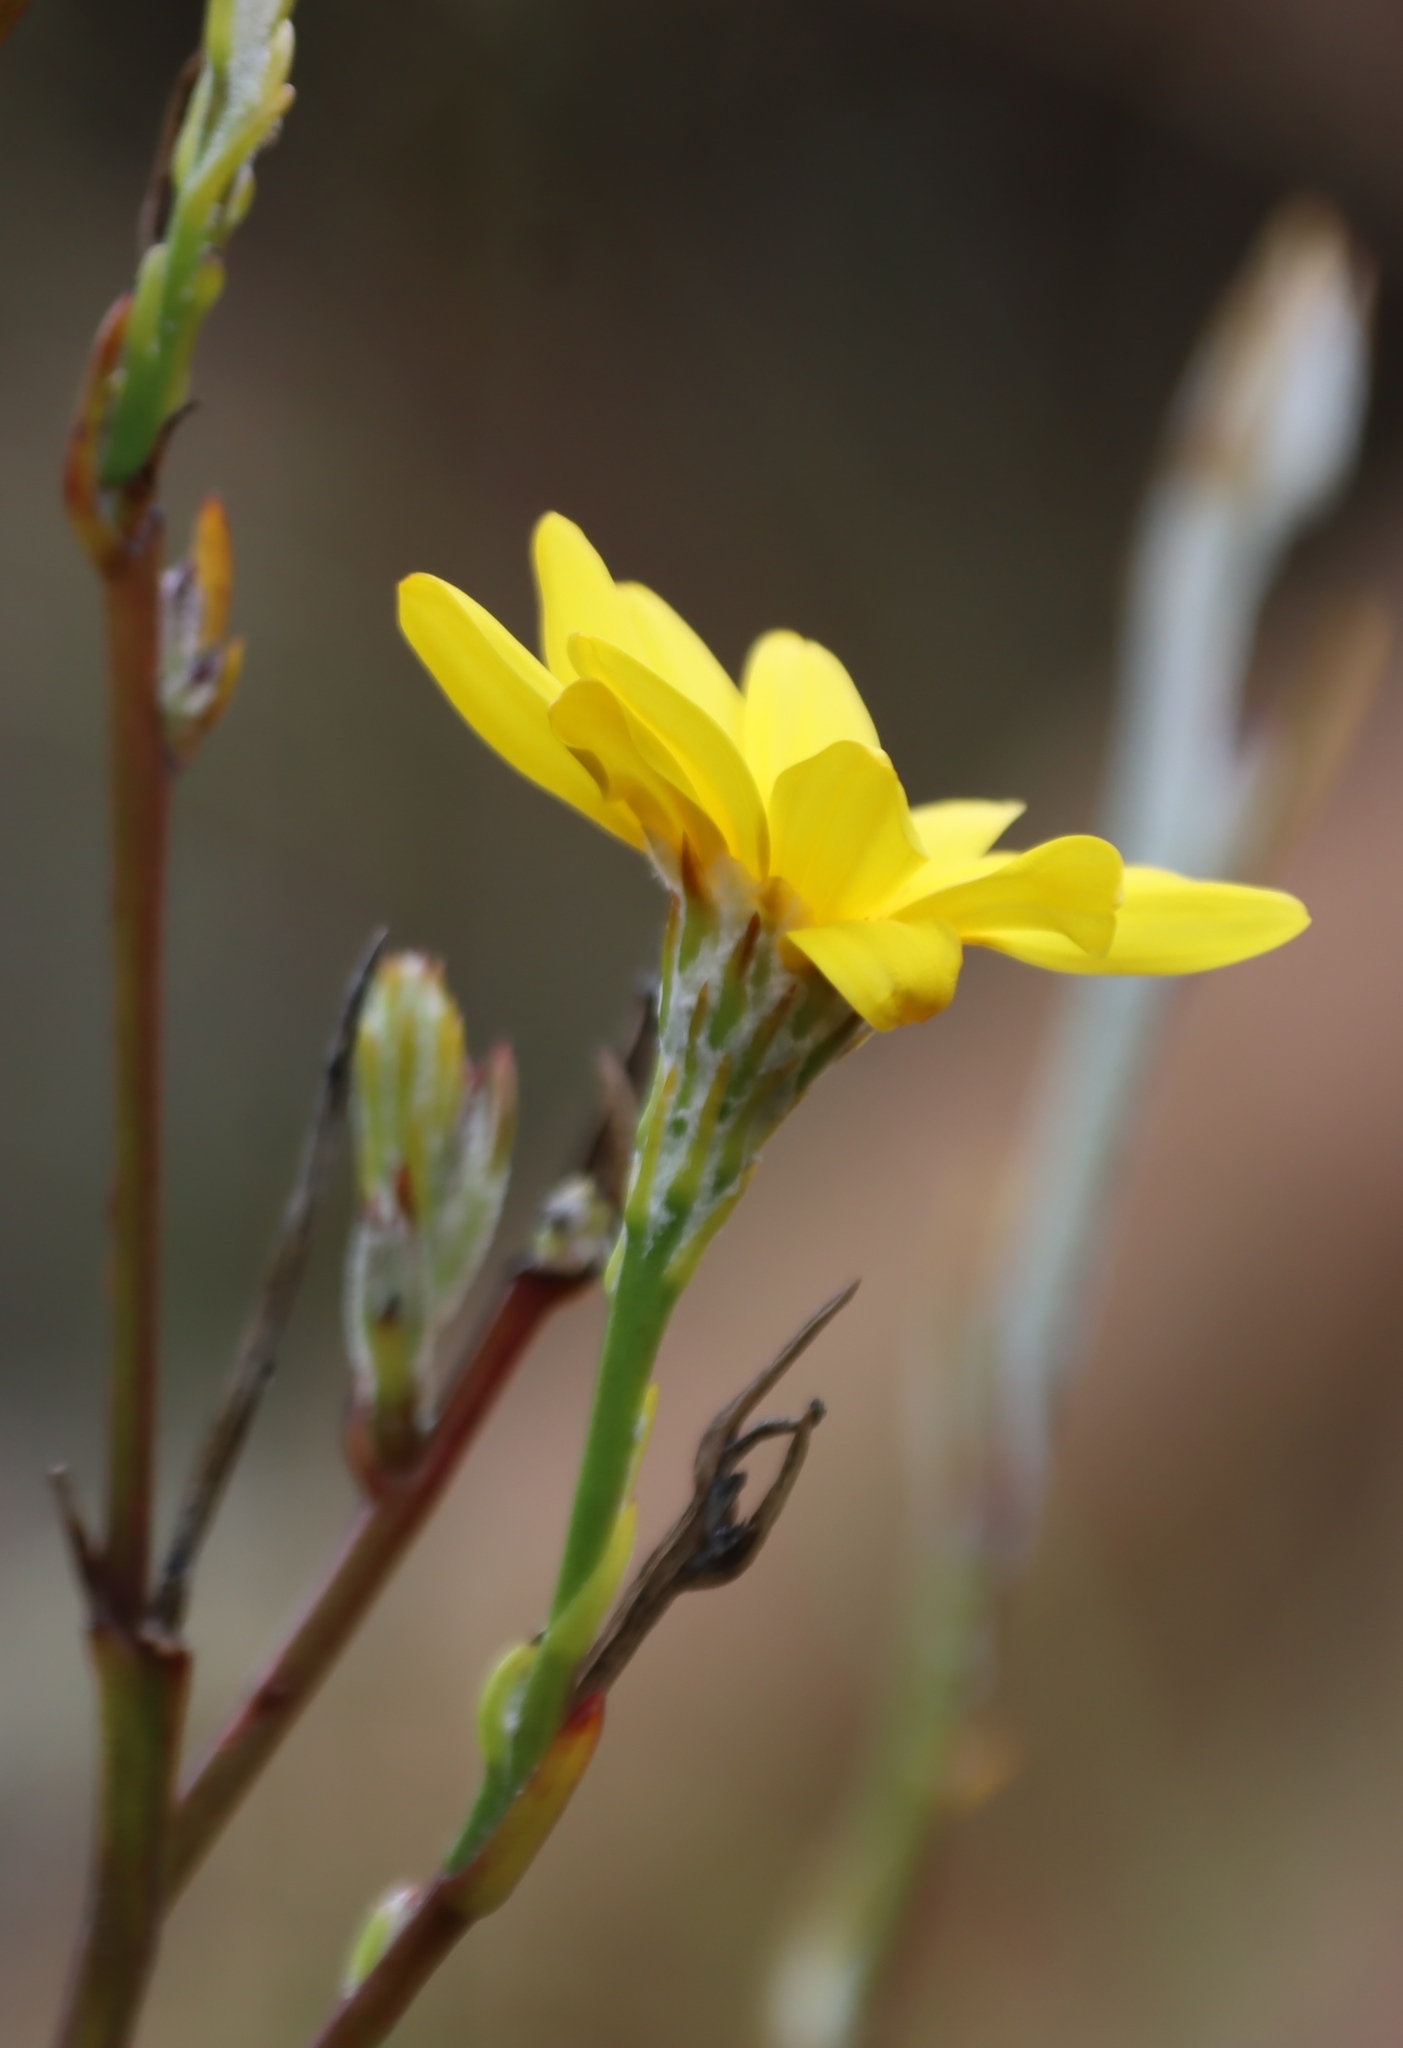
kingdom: Plantae
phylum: Tracheophyta
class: Magnoliopsida
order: Asterales
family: Asteraceae
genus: Osteospermum
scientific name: Osteospermum junceum
